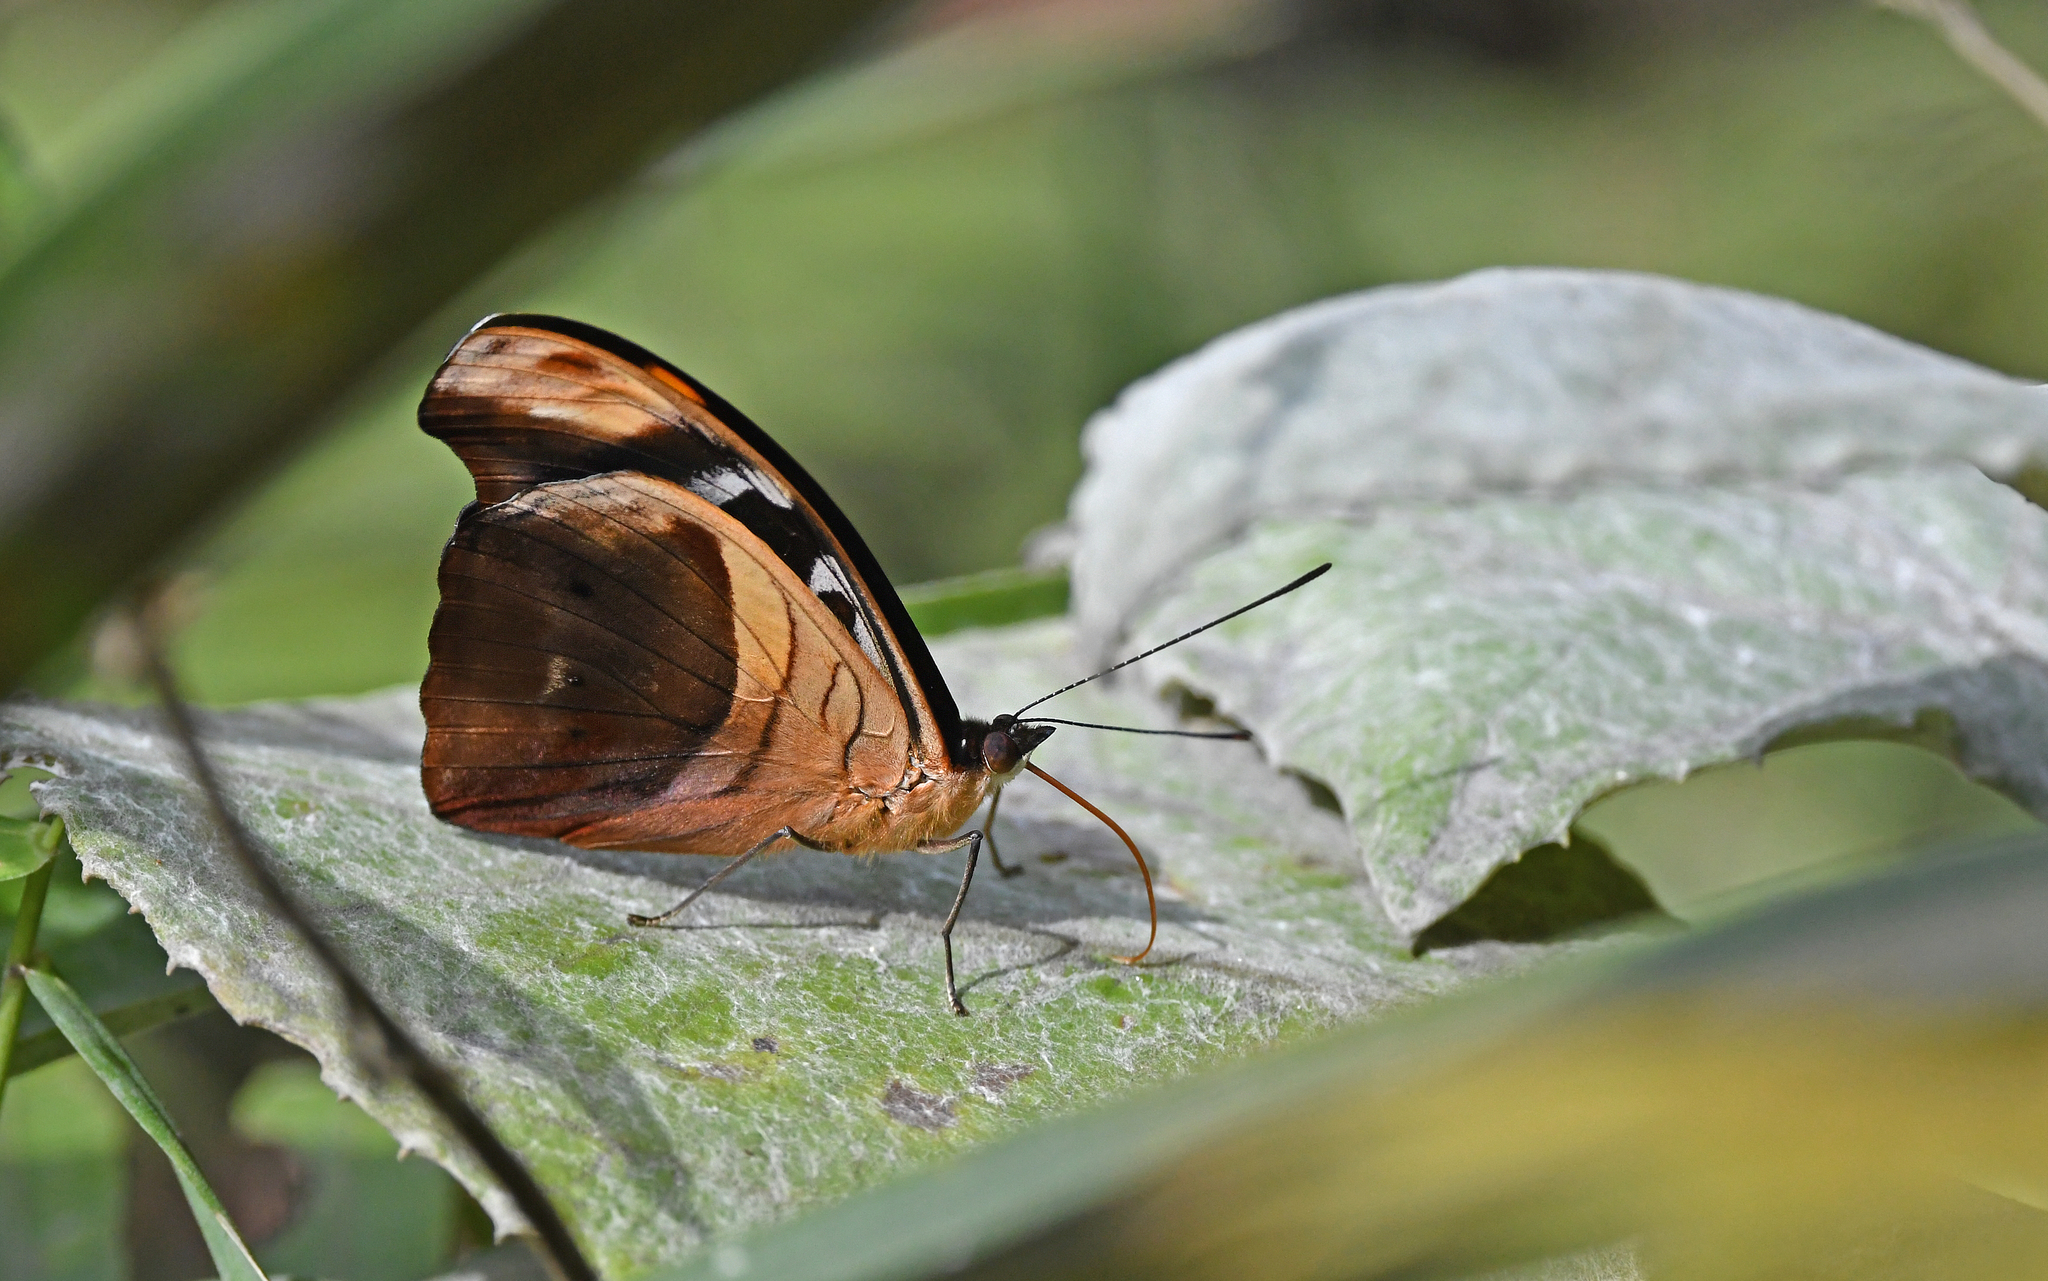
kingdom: Animalia
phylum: Arthropoda
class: Insecta
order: Lepidoptera
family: Nymphalidae
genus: Catonephele
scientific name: Catonephele chromis
